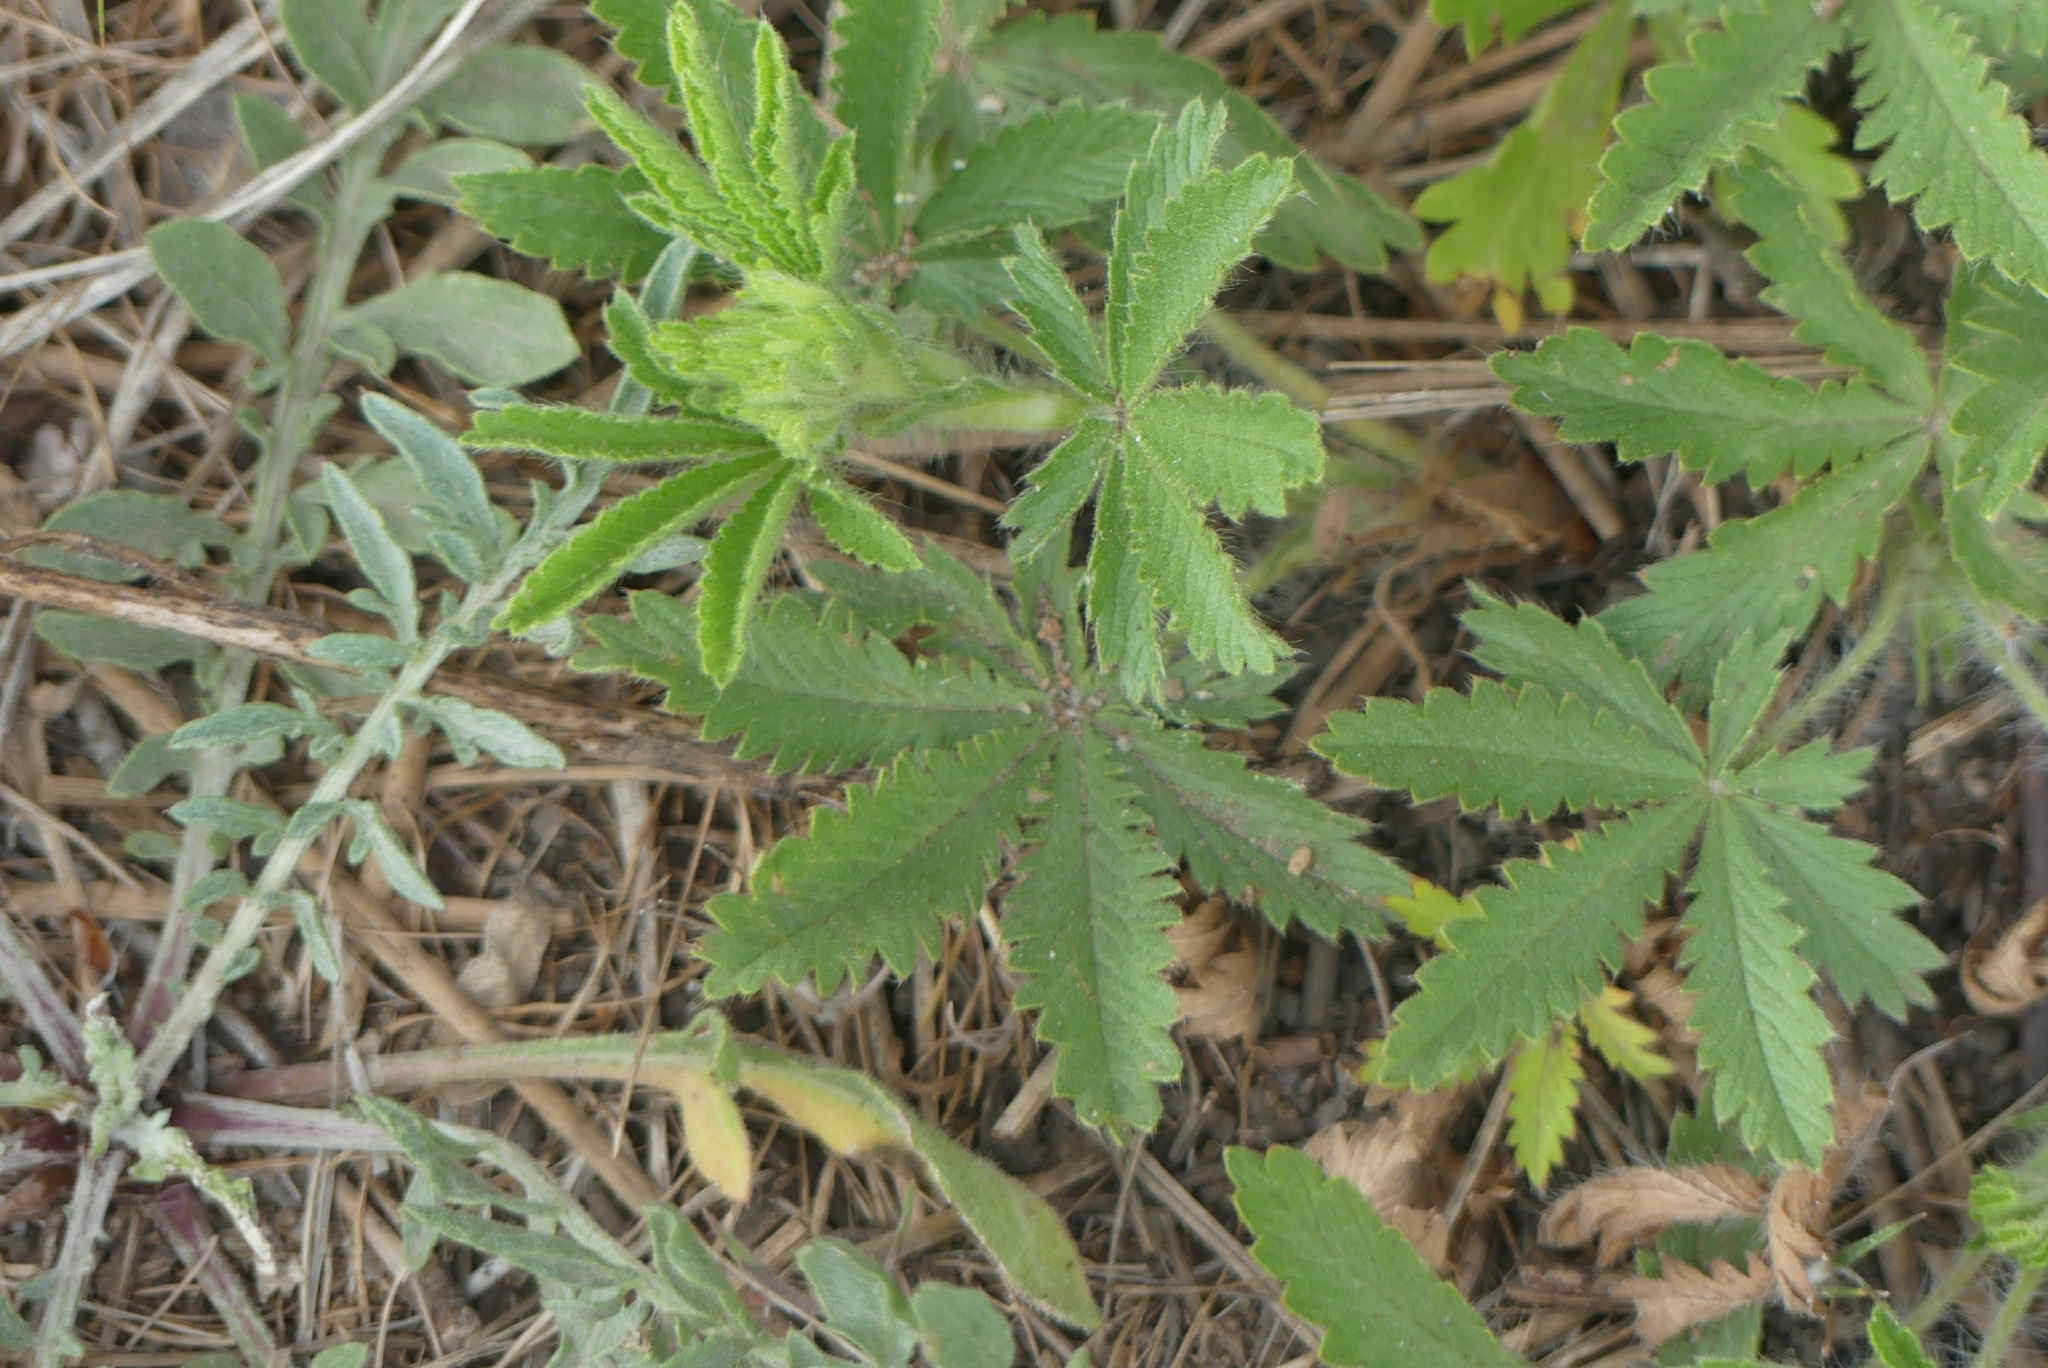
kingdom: Plantae
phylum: Tracheophyta
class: Magnoliopsida
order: Rosales
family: Rosaceae
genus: Potentilla
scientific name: Potentilla recta
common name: Sulphur cinquefoil
